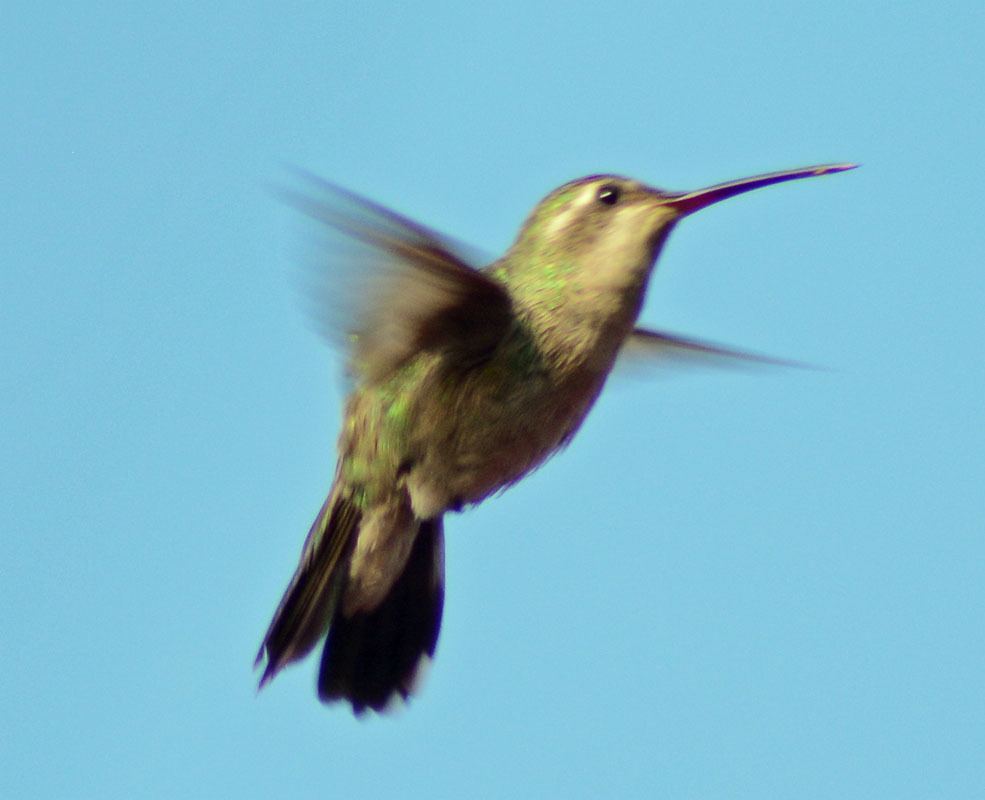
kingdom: Animalia
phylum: Chordata
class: Aves
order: Apodiformes
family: Trochilidae
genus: Cynanthus
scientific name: Cynanthus latirostris
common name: Broad-billed hummingbird
